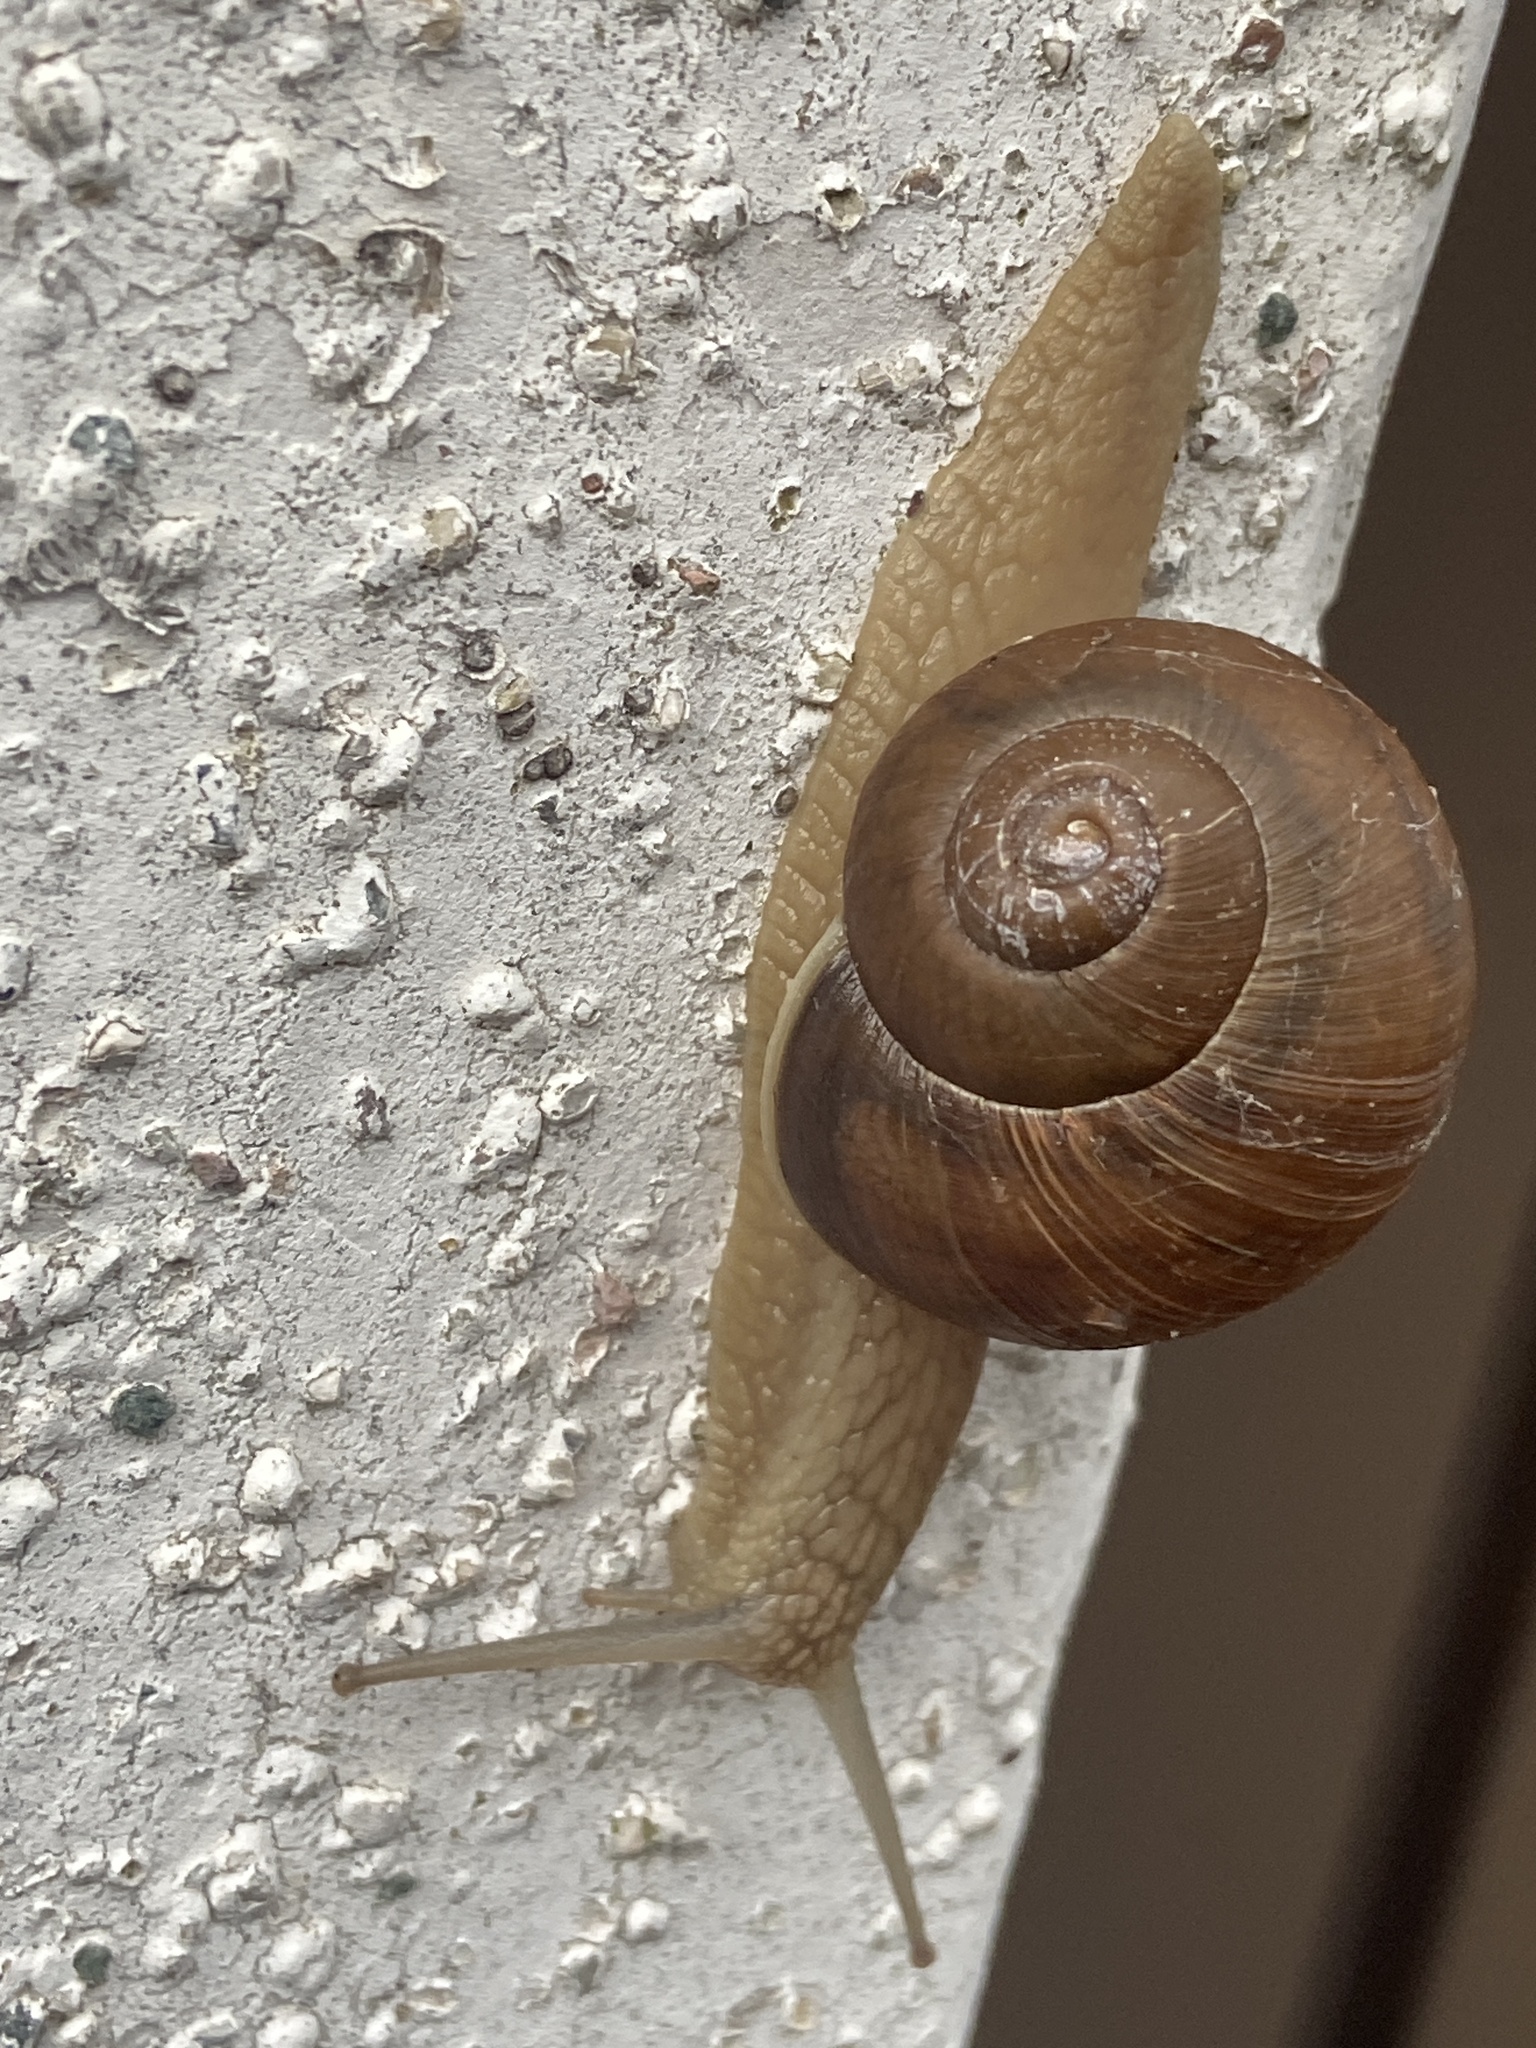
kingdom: Animalia
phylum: Mollusca
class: Gastropoda
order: Stylommatophora
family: Helicidae
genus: Helix
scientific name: Helix pomatia
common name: Roman snail
